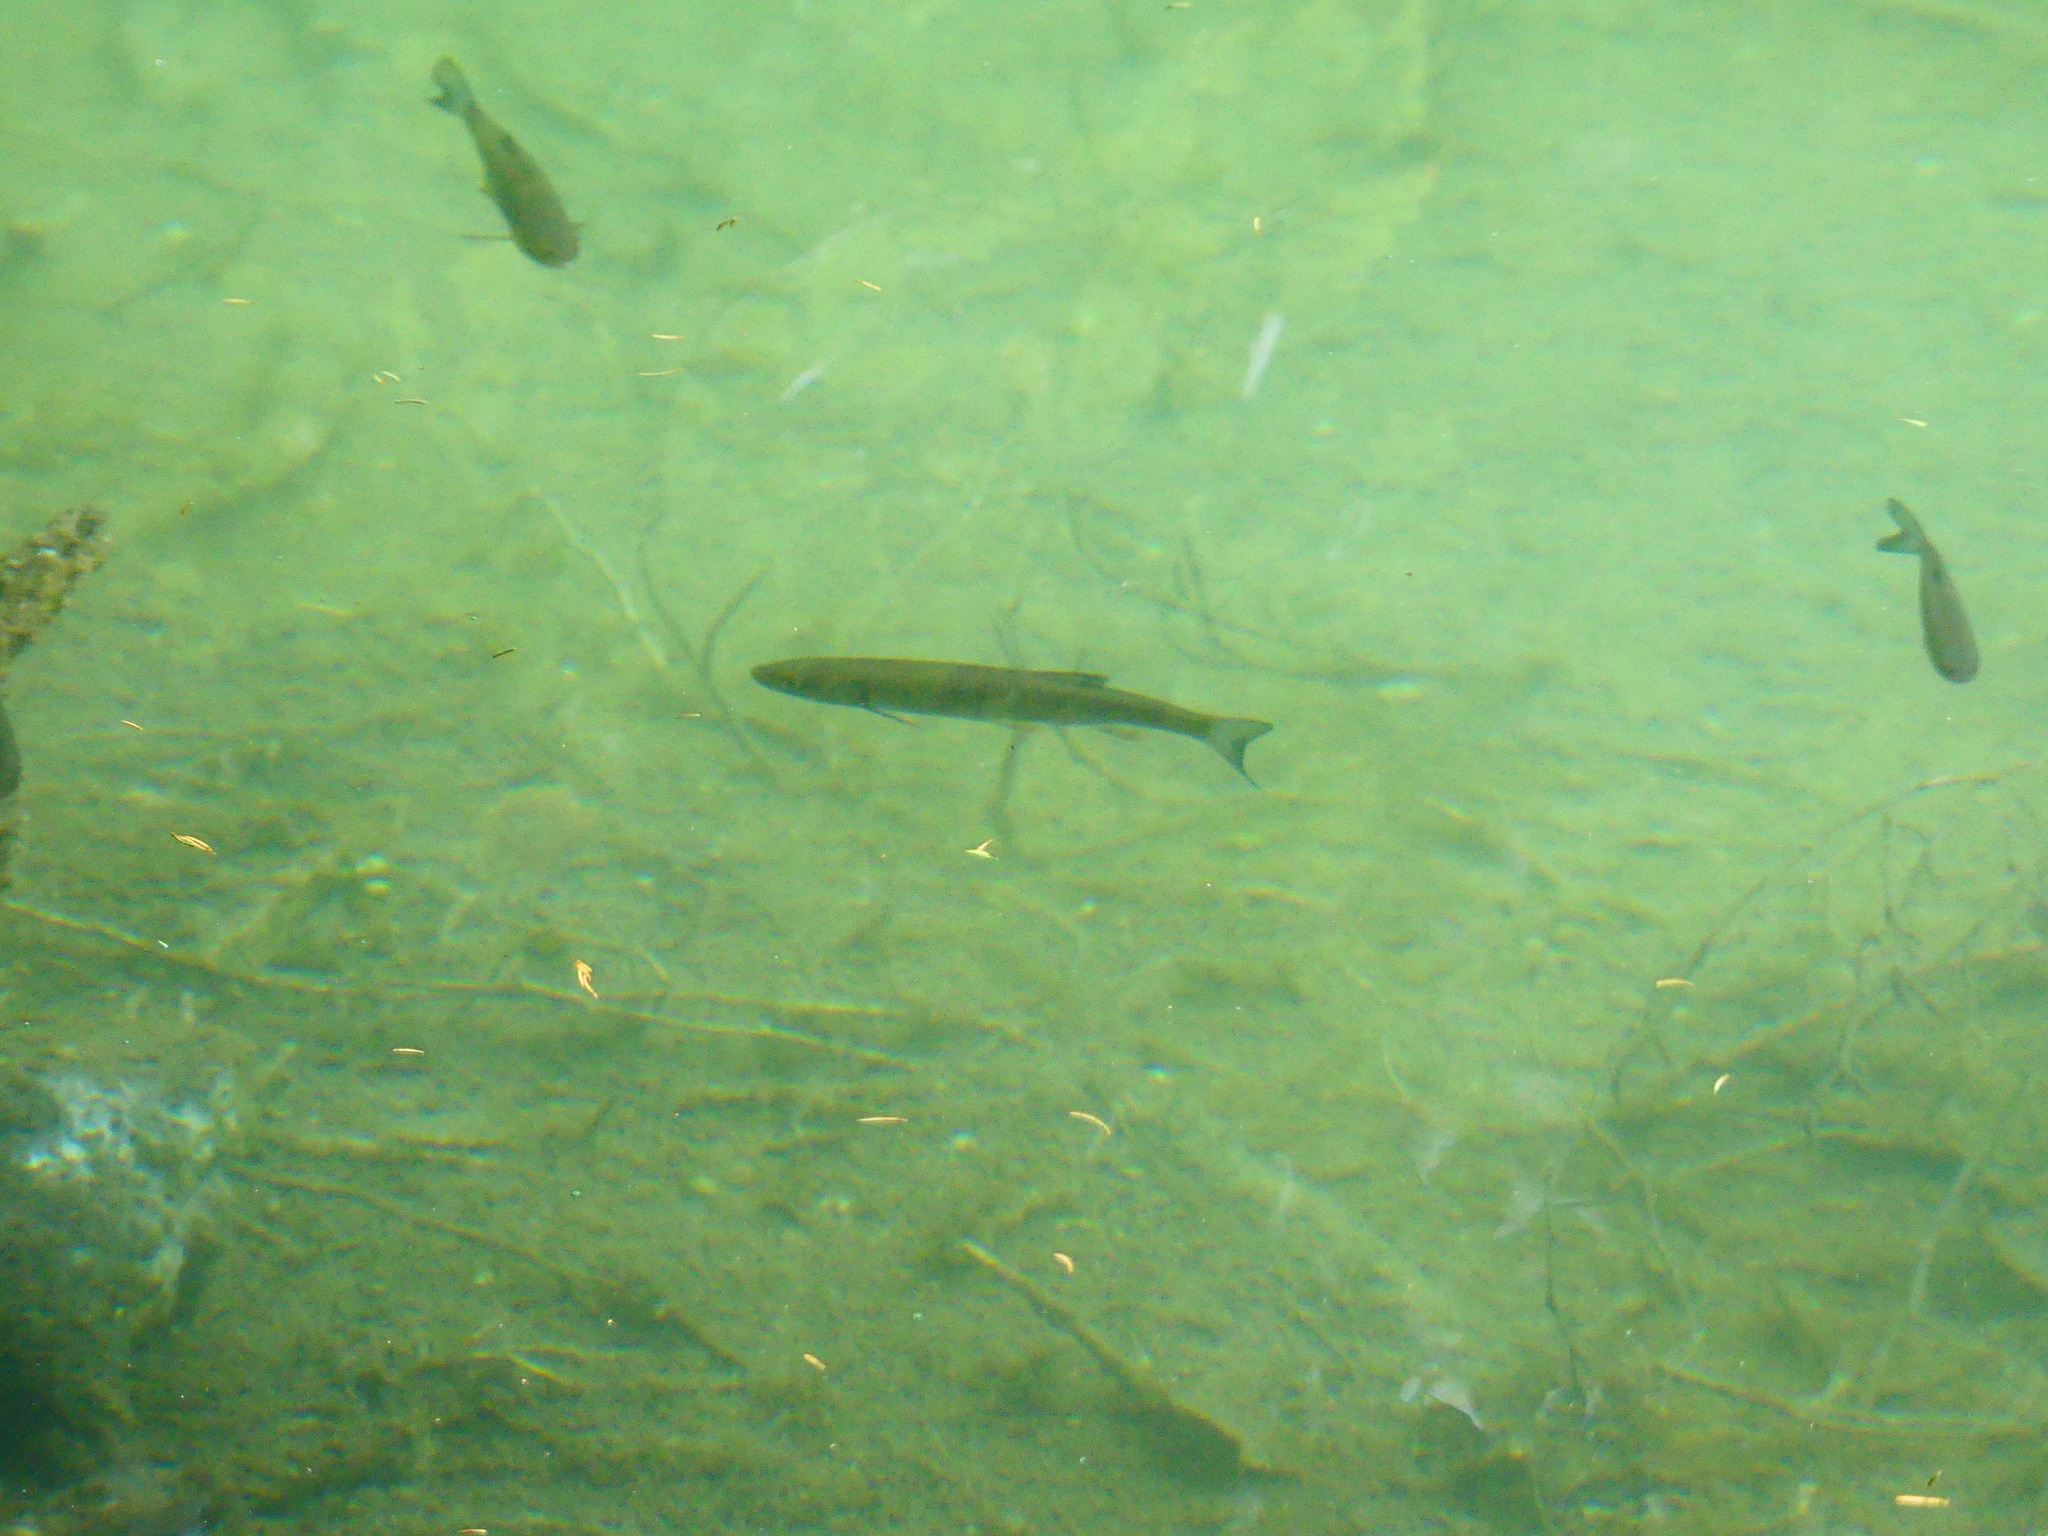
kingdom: Animalia
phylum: Chordata
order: Cypriniformes
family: Cyprinidae
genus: Squalius
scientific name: Squalius cephalus
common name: Chub
